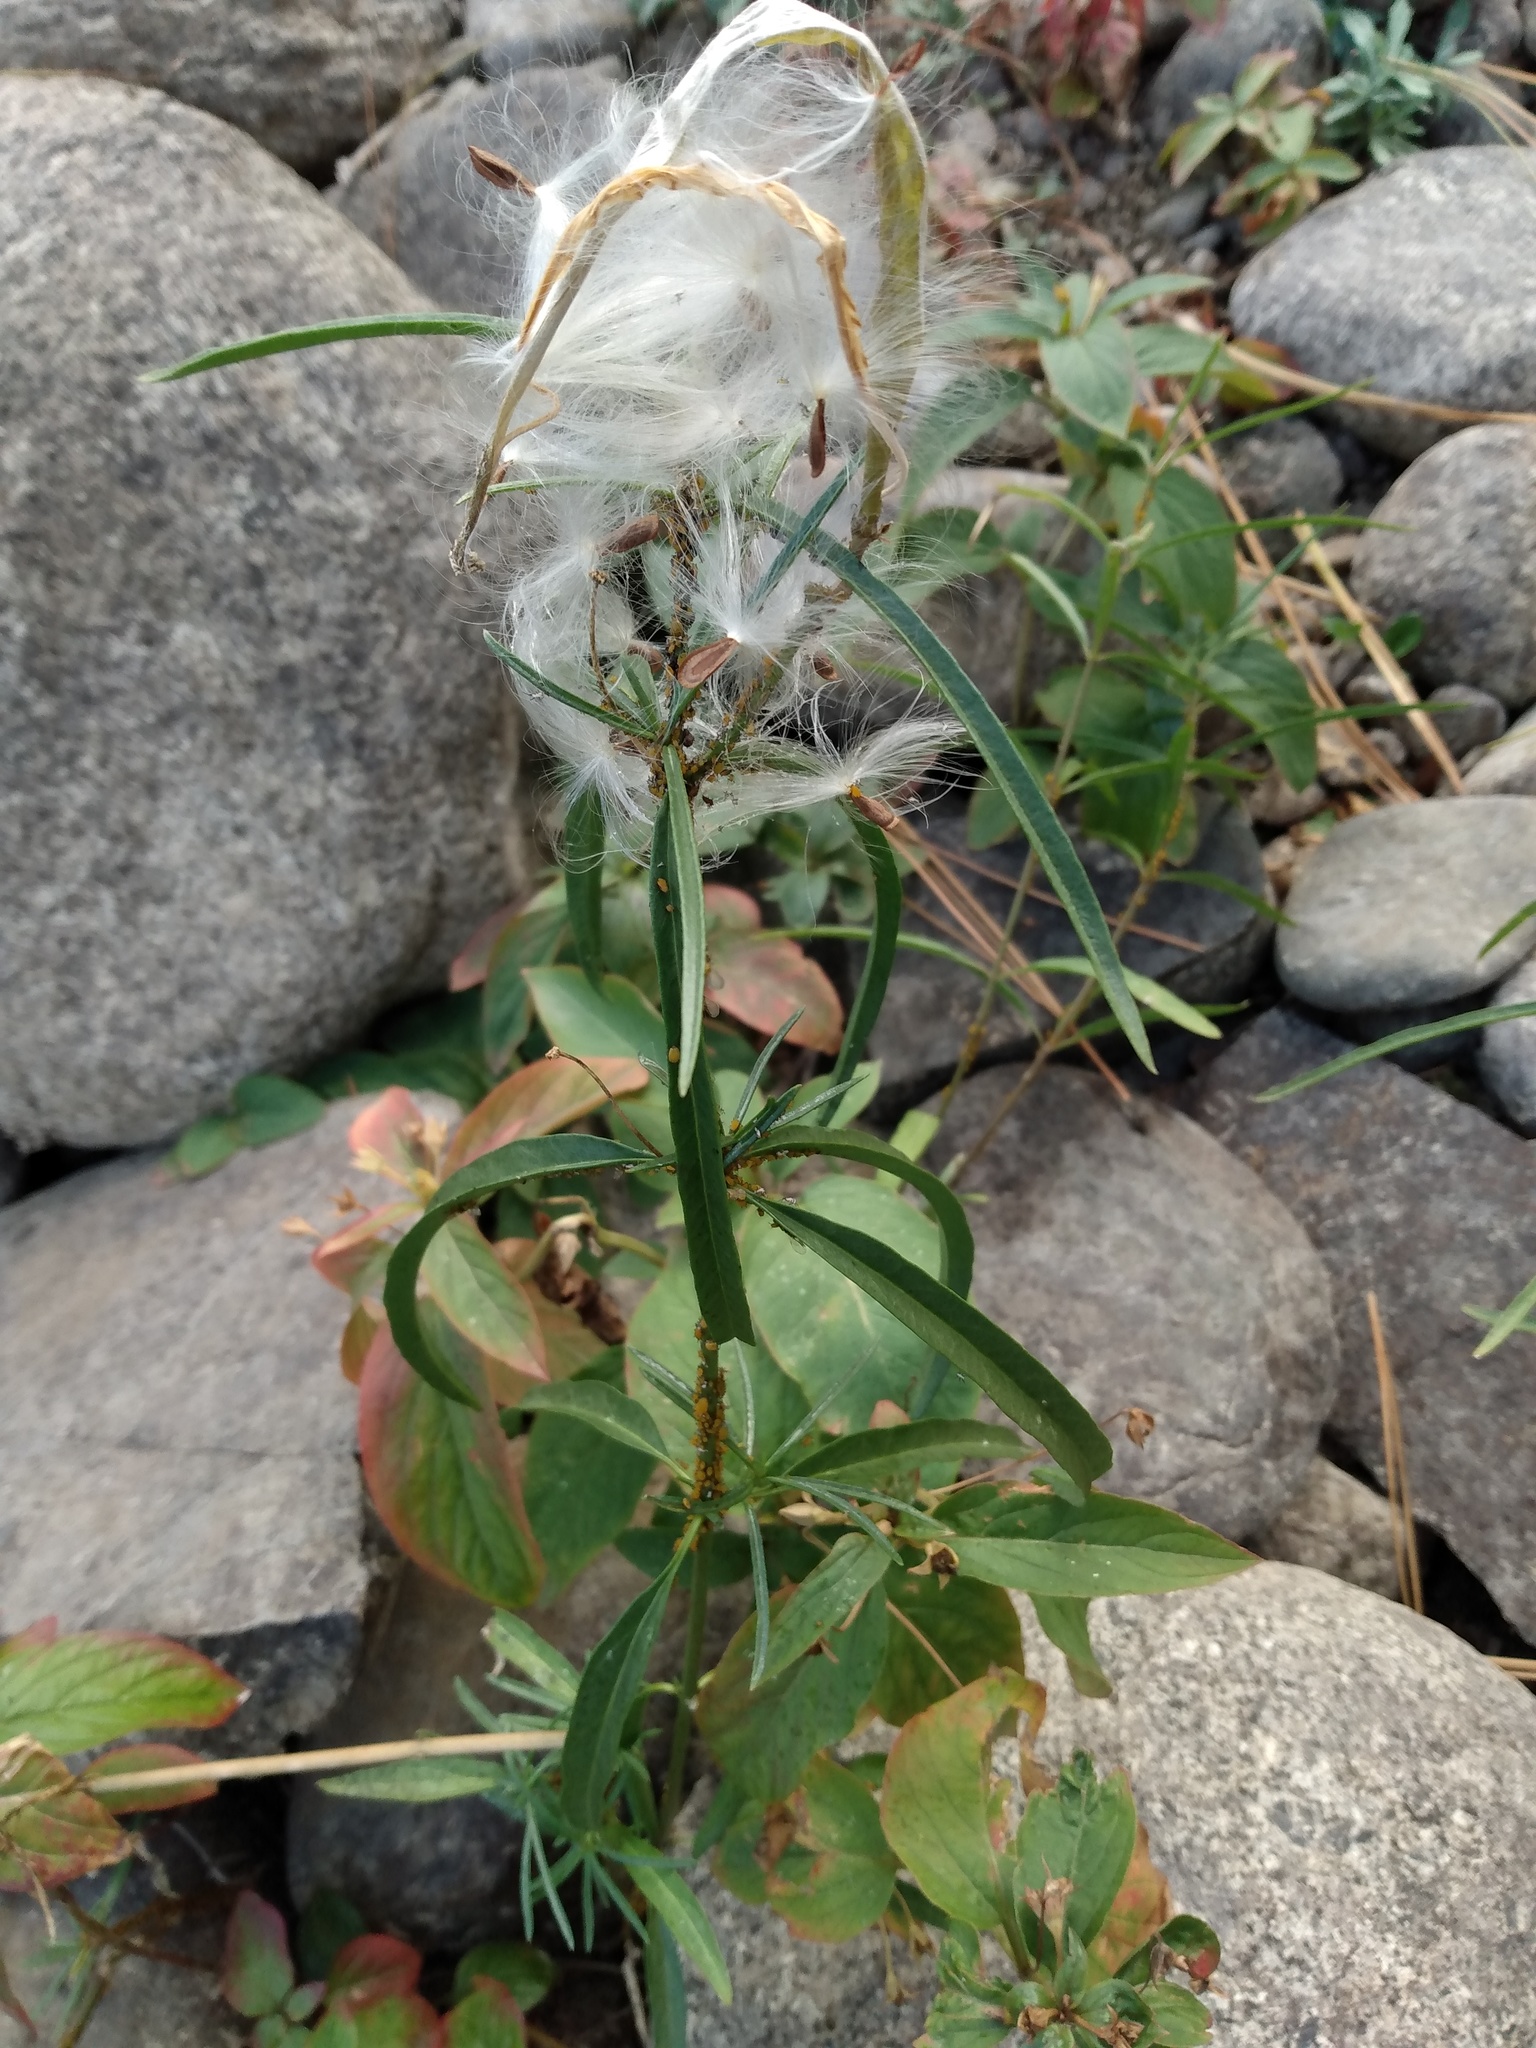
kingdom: Plantae
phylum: Tracheophyta
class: Magnoliopsida
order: Gentianales
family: Apocynaceae
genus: Asclepias
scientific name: Asclepias fascicularis
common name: Mexican milkweed
